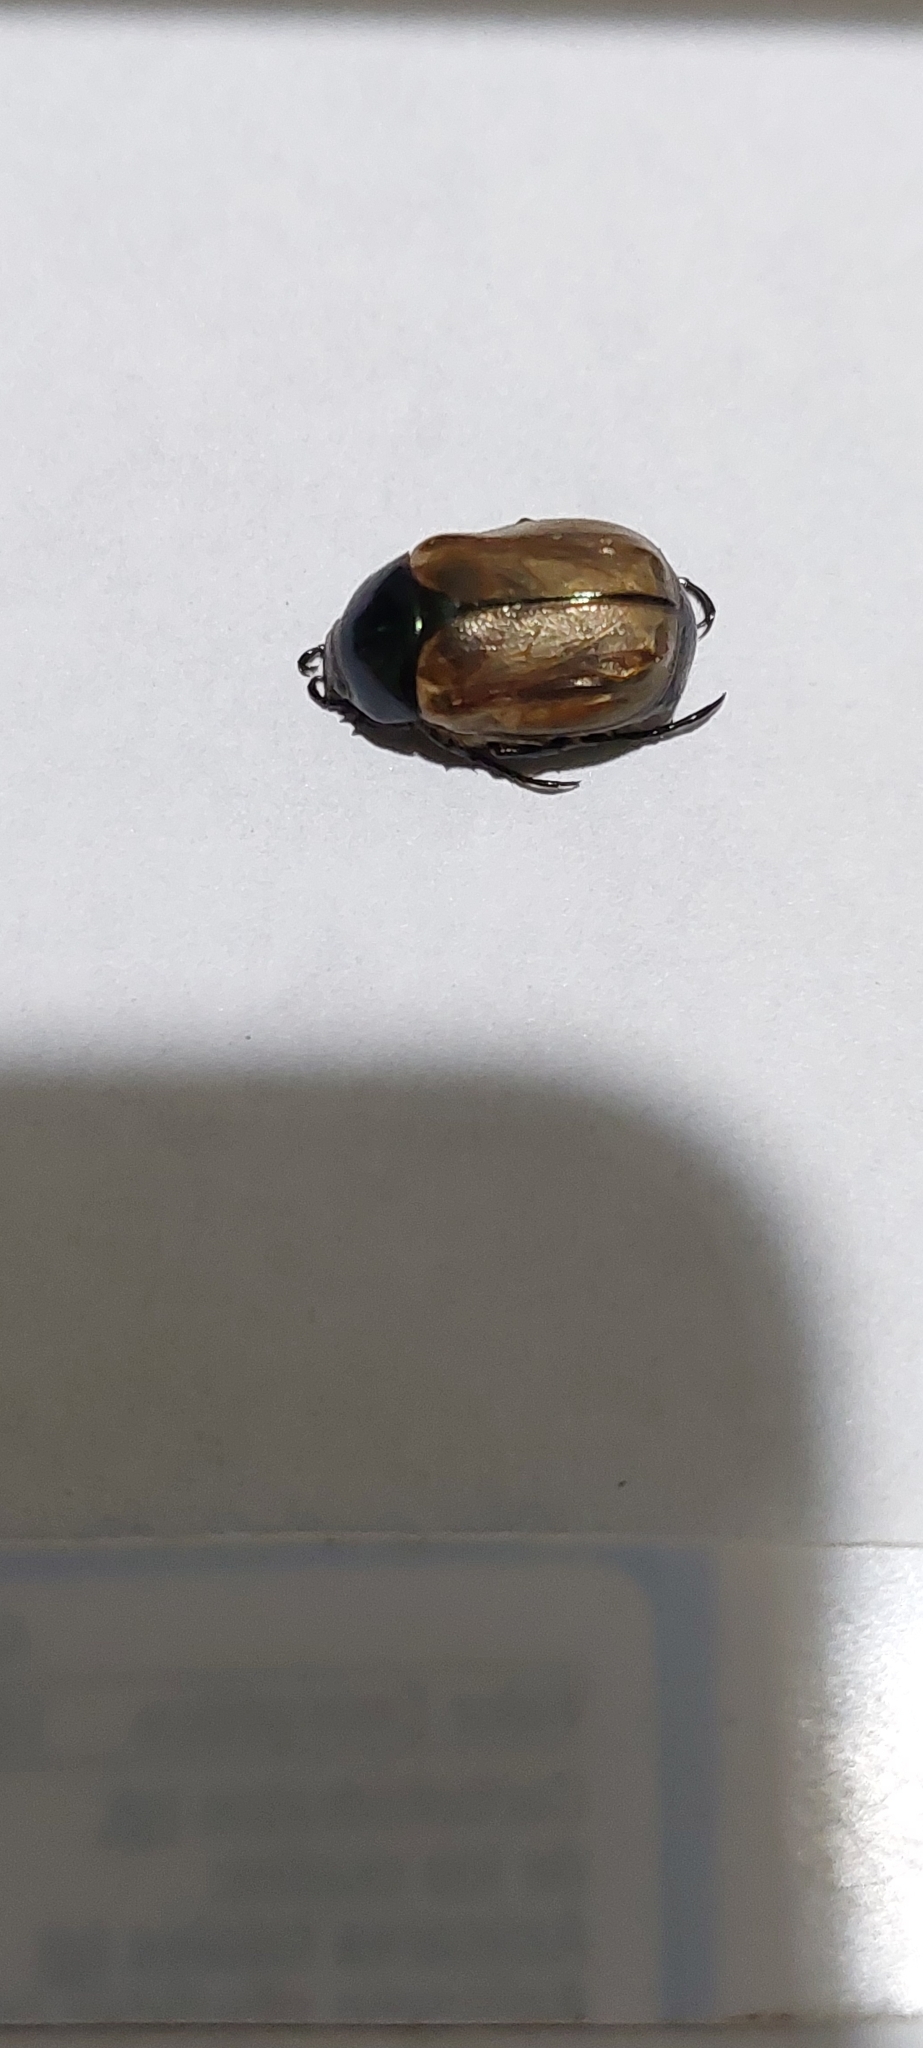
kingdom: Animalia
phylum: Arthropoda
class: Insecta
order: Coleoptera
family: Scarabaeidae
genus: Paranomala
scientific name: Paranomala testaceipennis
